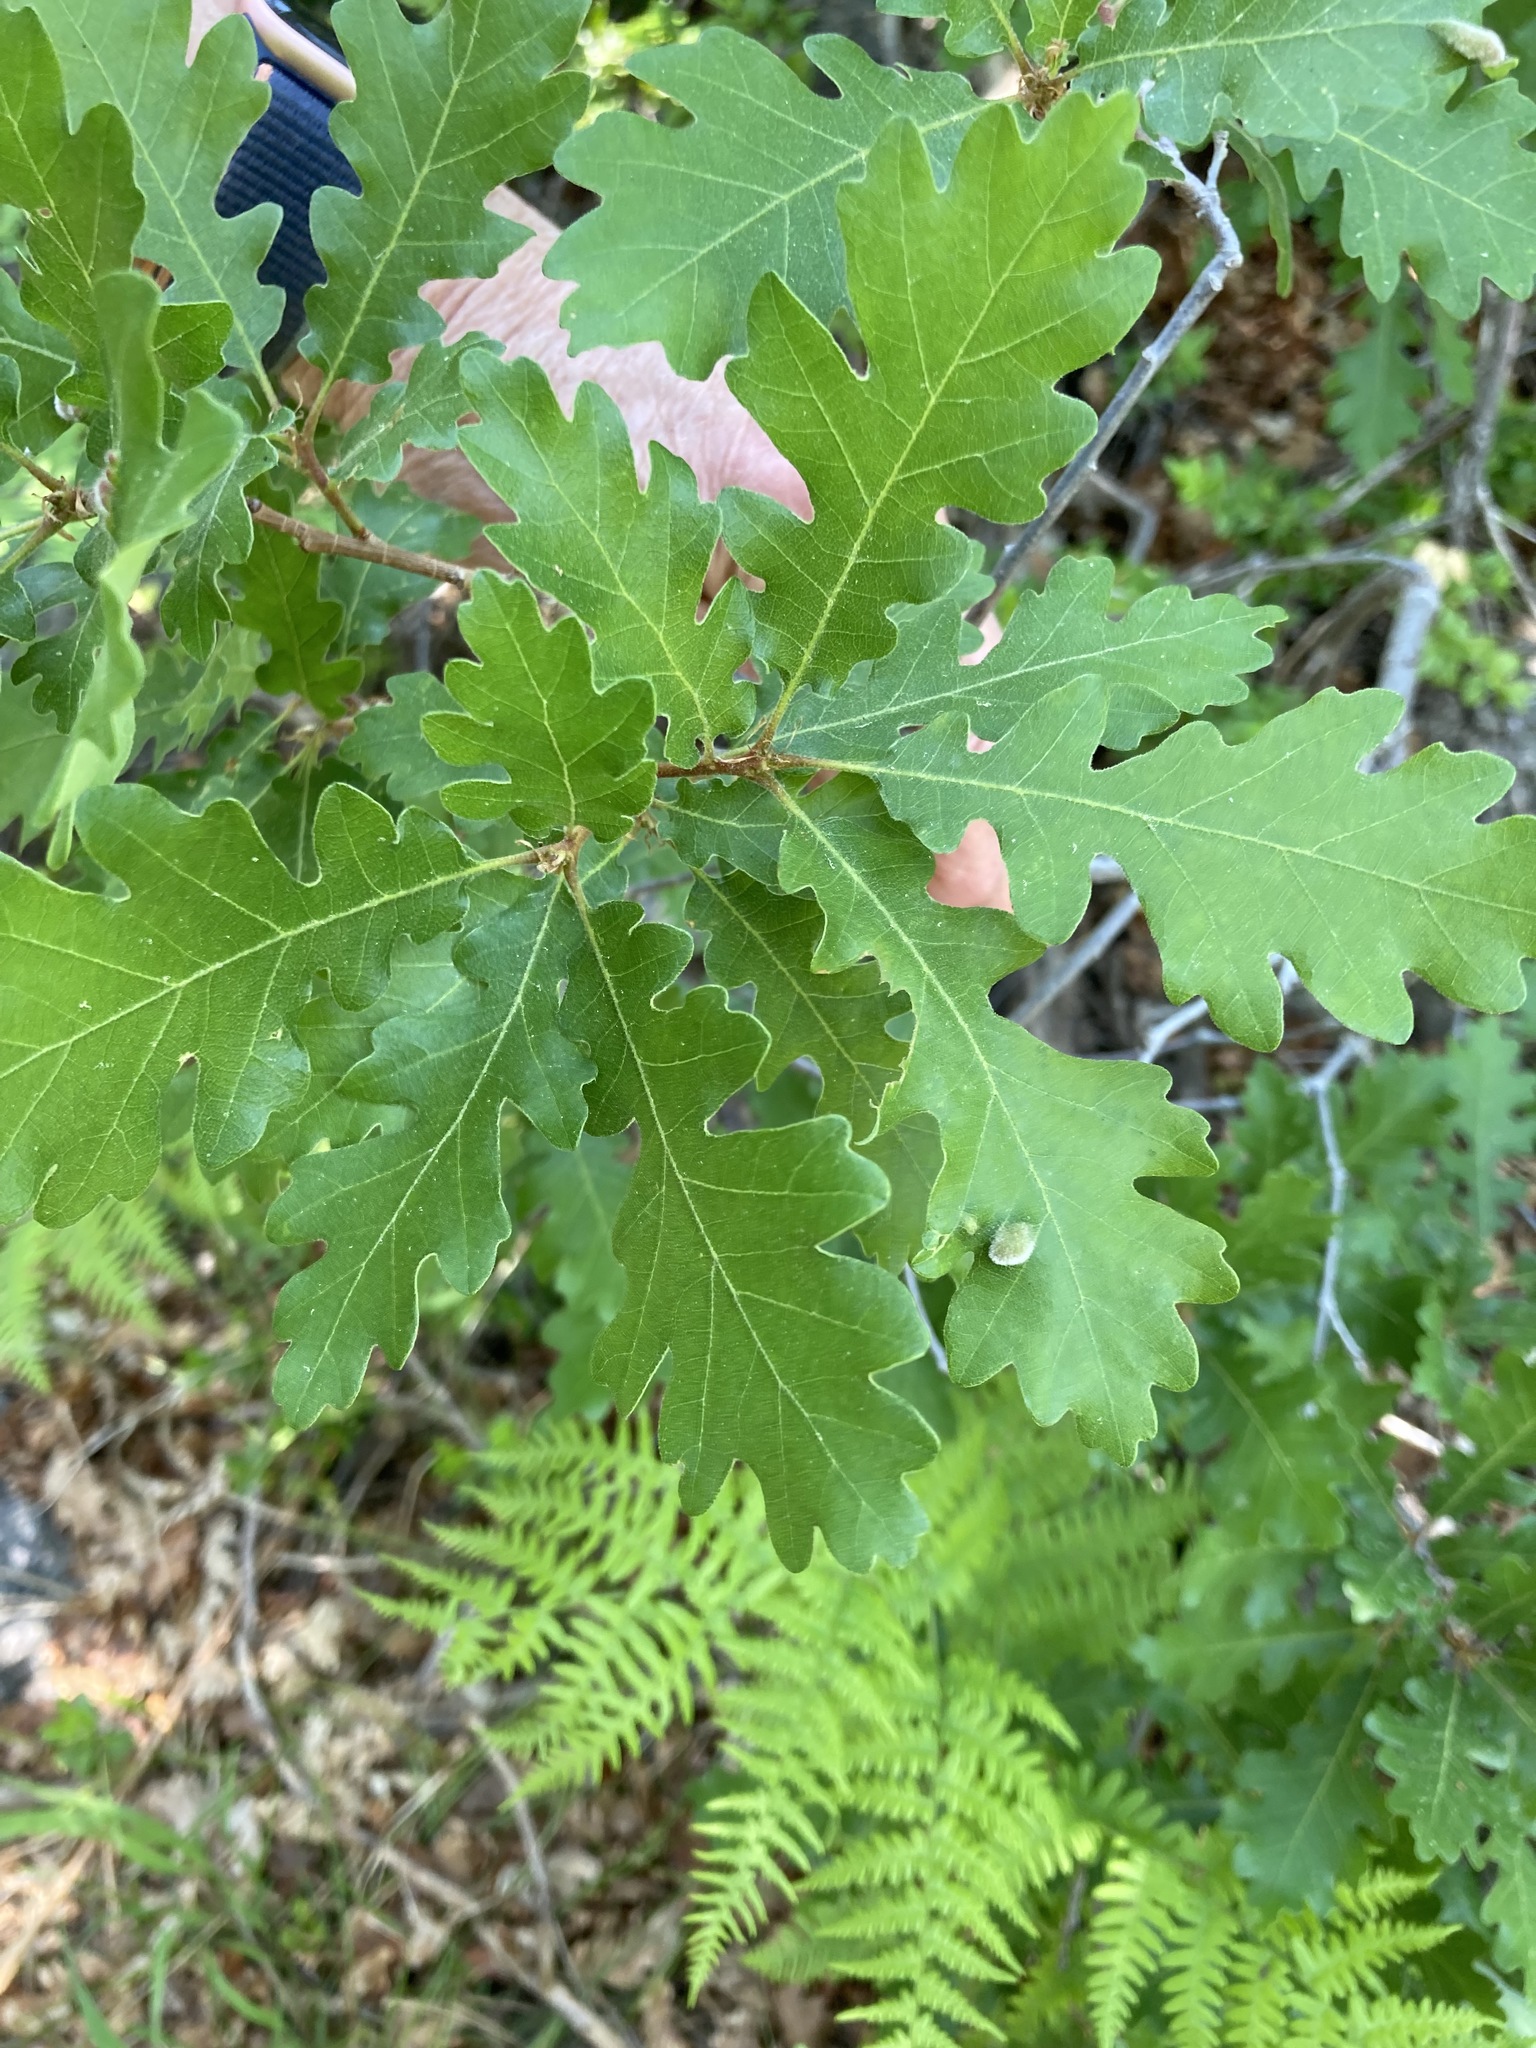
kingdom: Plantae
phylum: Tracheophyta
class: Magnoliopsida
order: Fagales
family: Fagaceae
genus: Quercus
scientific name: Quercus gambelii
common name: Gambel oak
